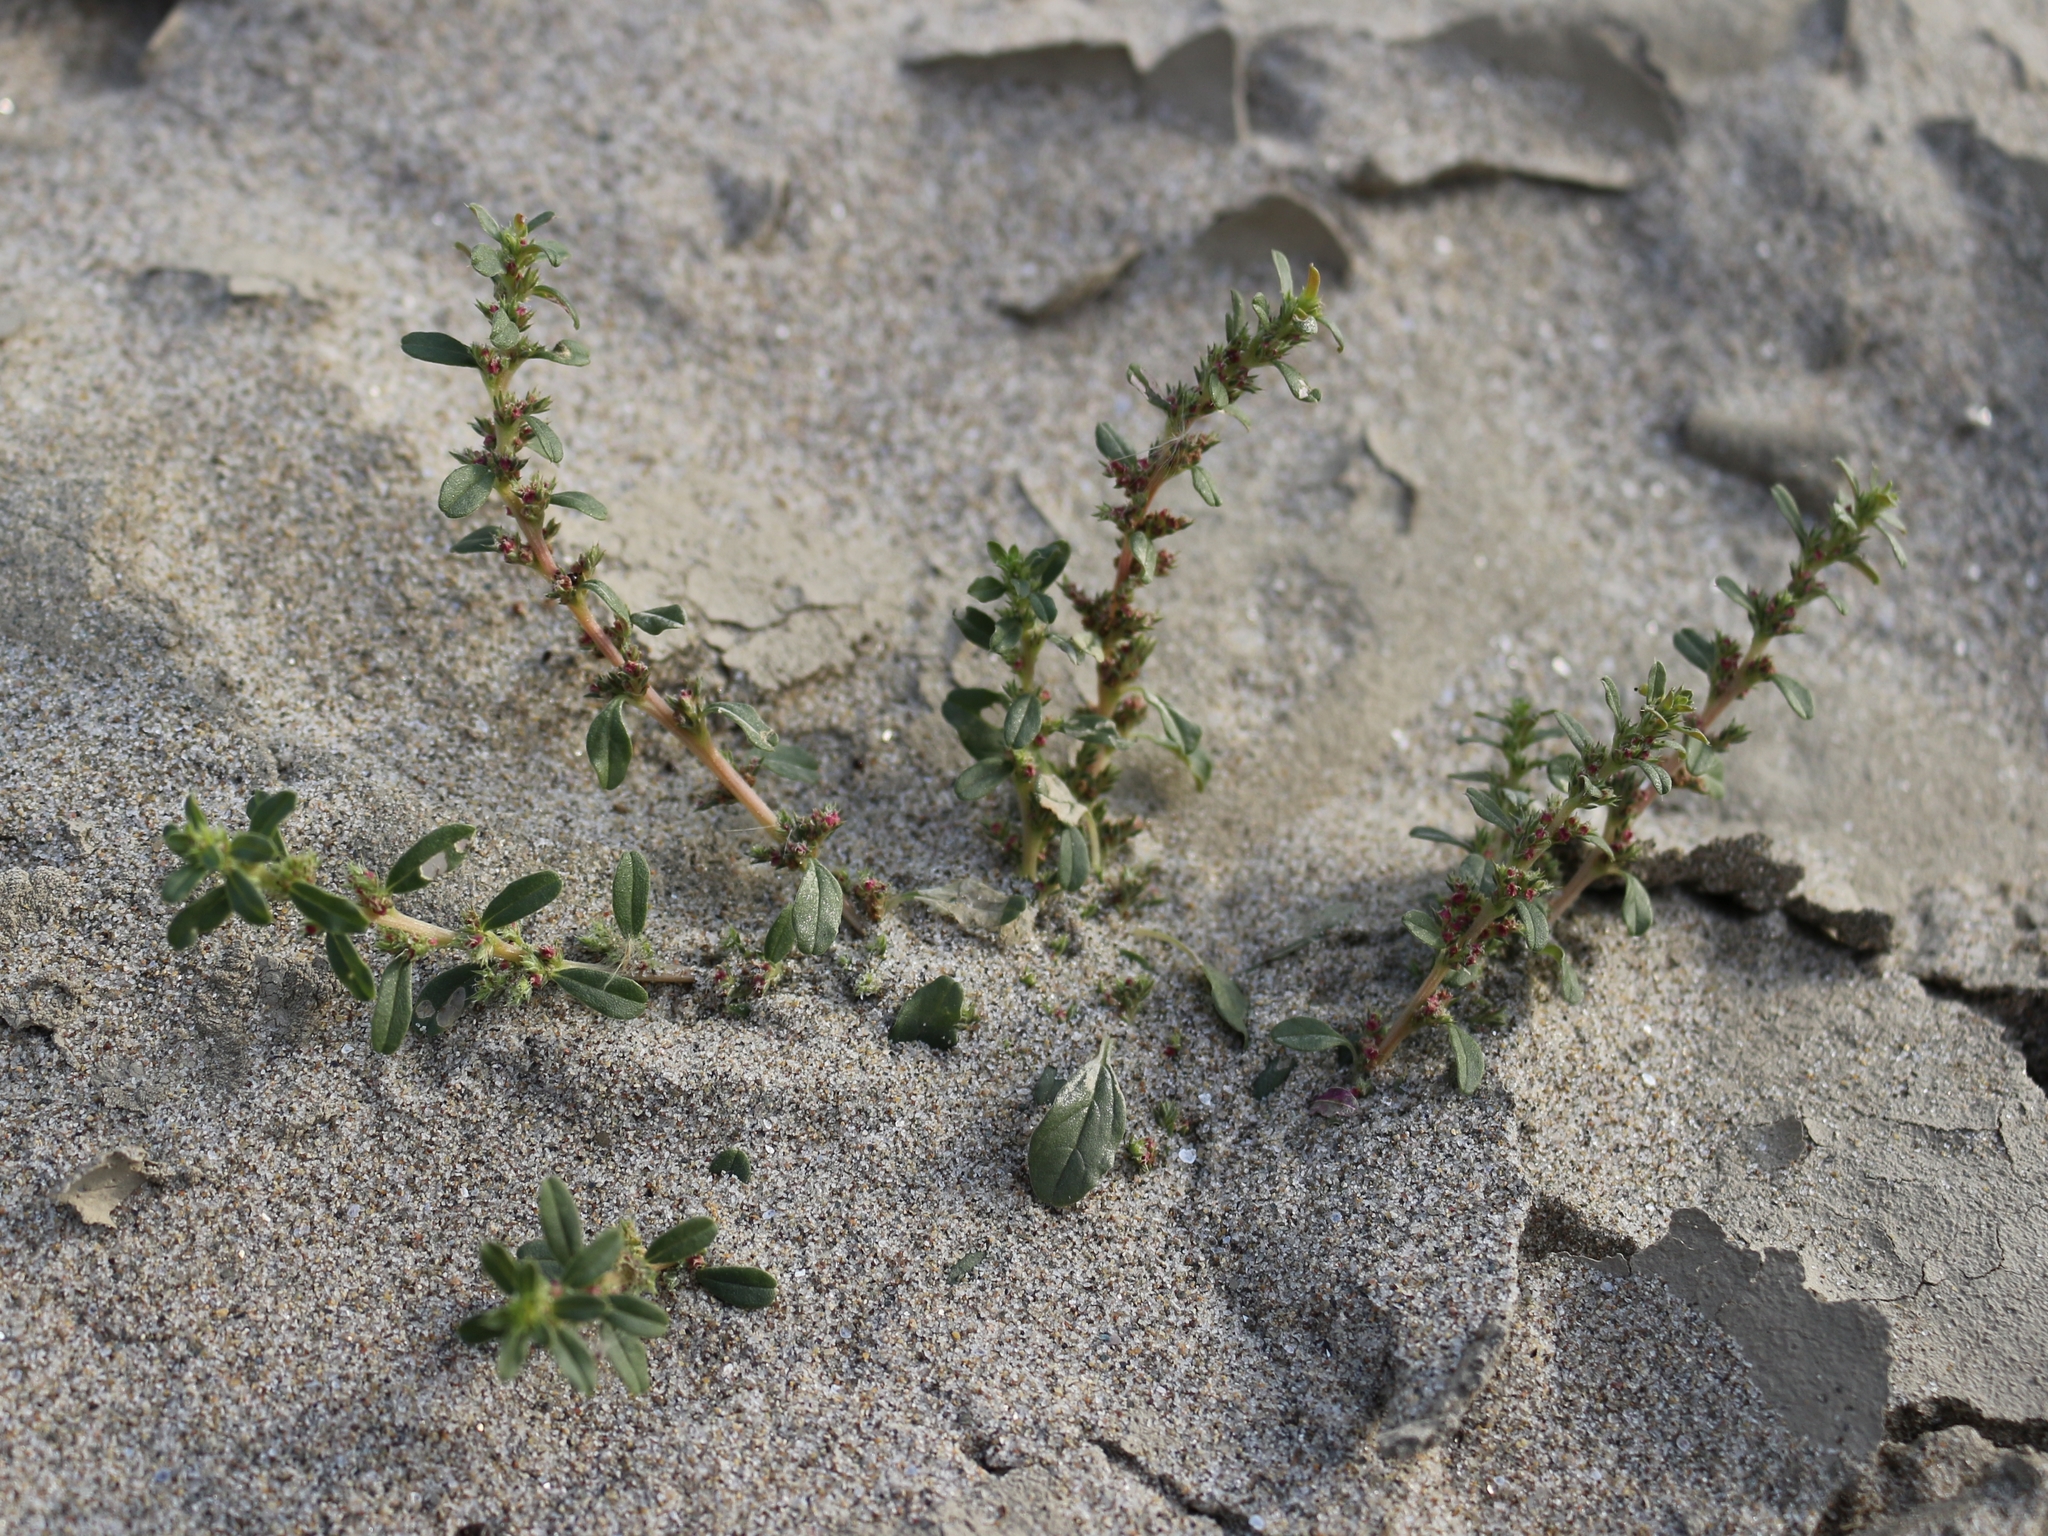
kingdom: Plantae
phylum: Tracheophyta
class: Magnoliopsida
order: Caryophyllales
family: Amaranthaceae
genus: Amaranthus
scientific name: Amaranthus blitoides
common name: Prostrate pigweed
